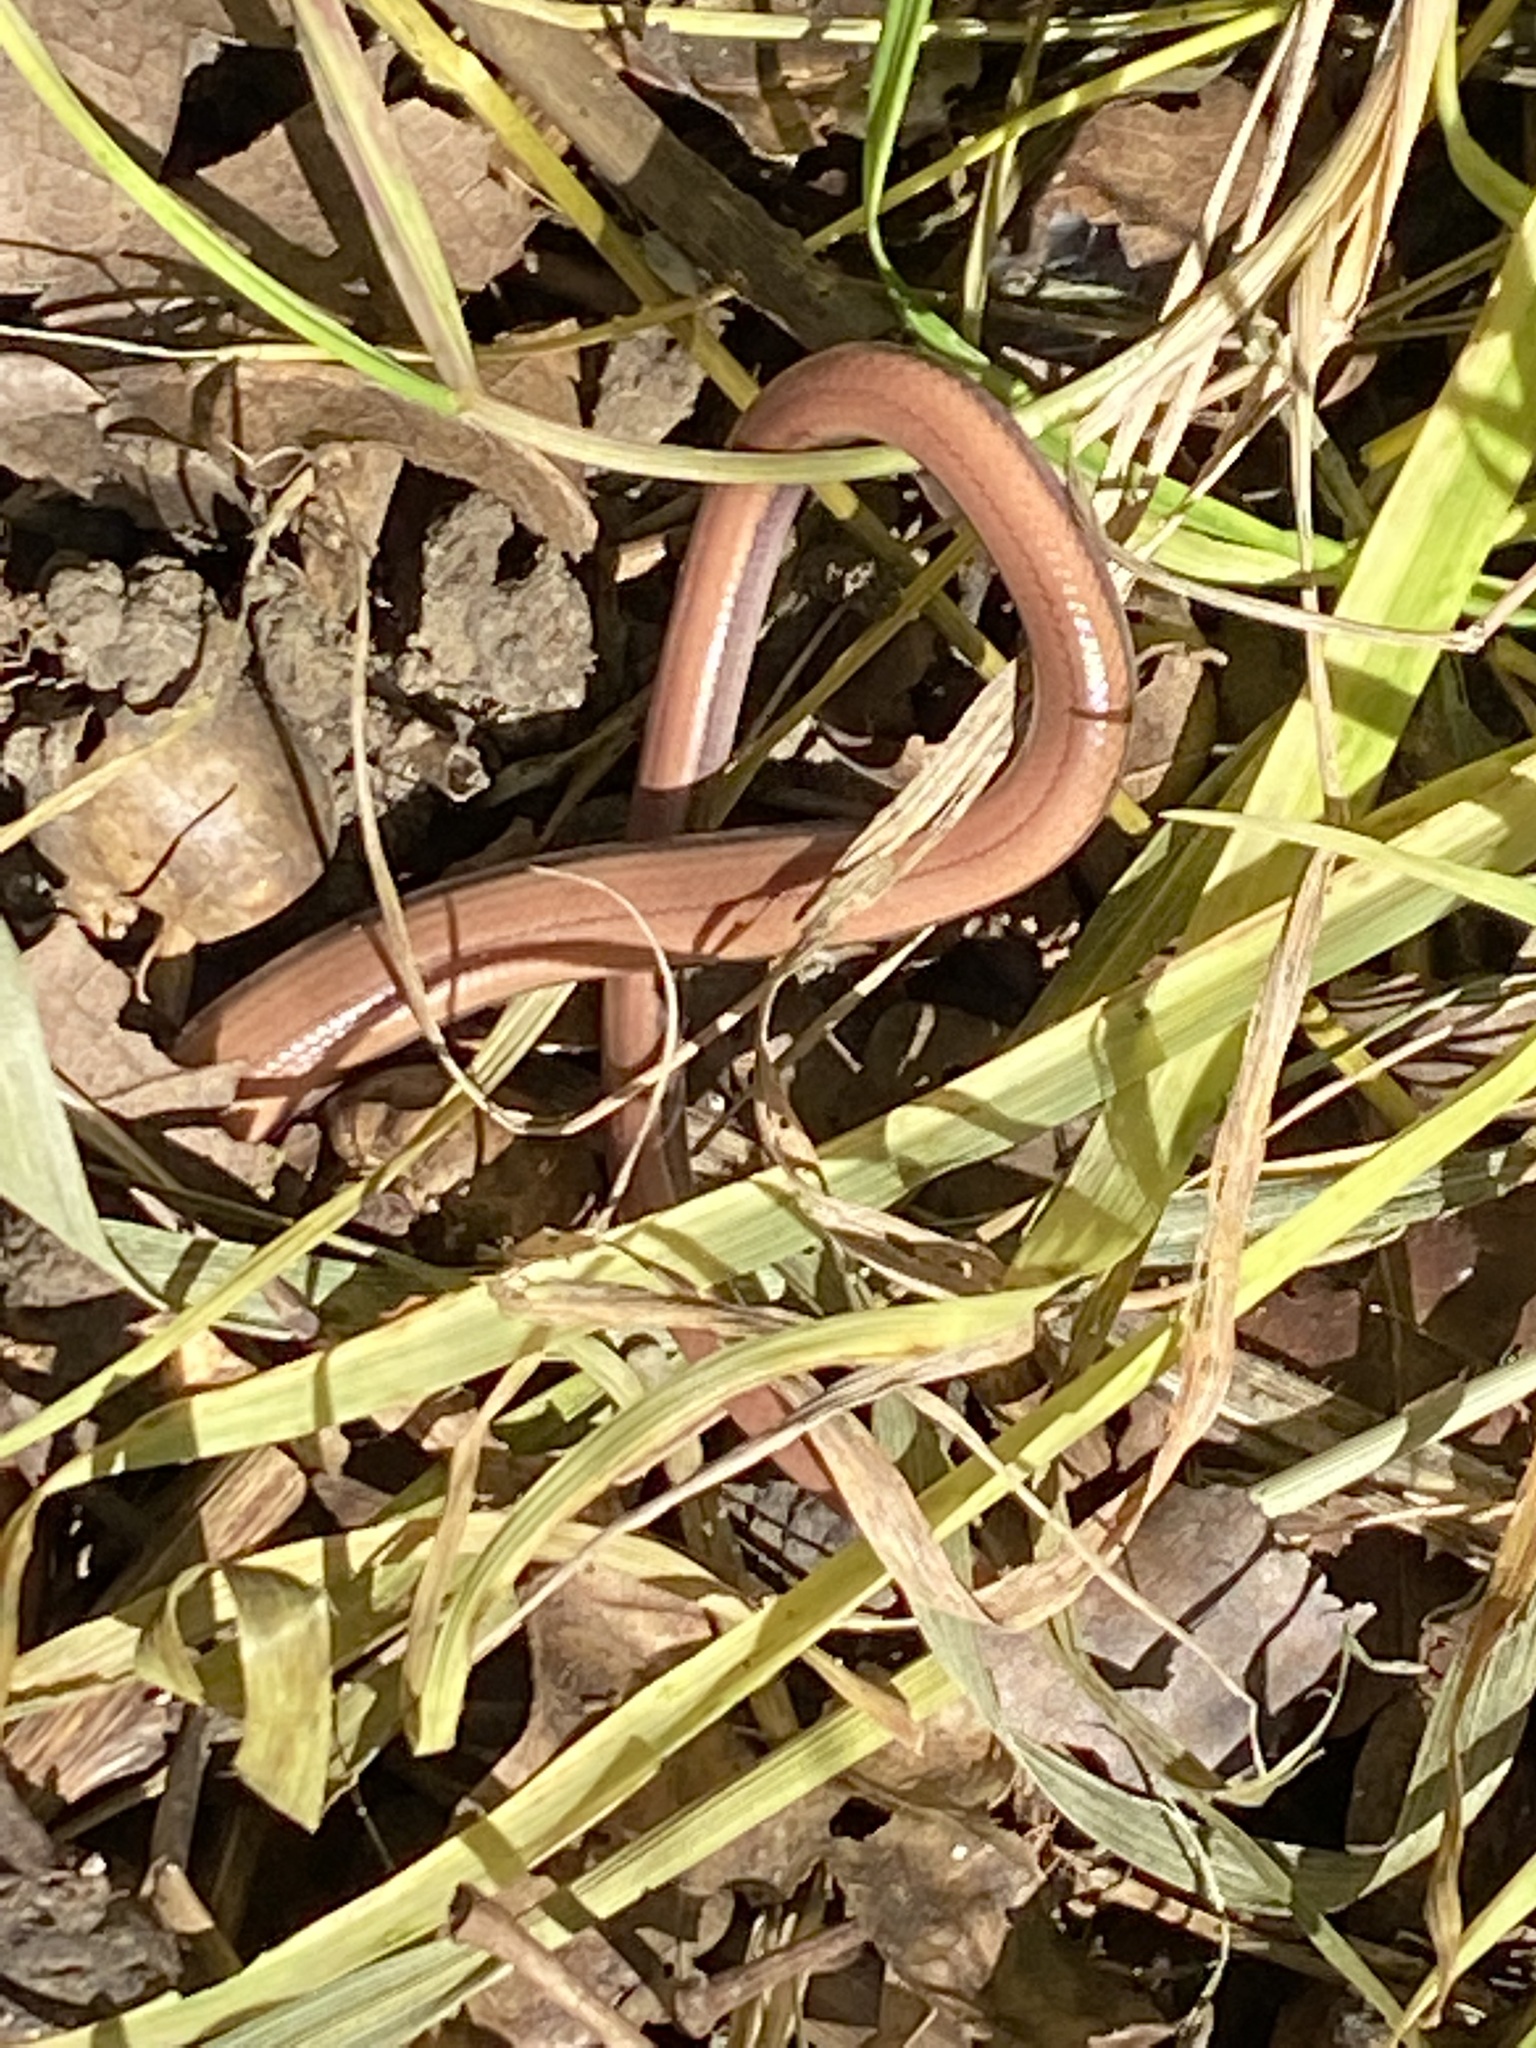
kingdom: Animalia
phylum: Chordata
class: Squamata
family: Anguidae
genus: Anguis
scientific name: Anguis fragilis
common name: Slow worm
